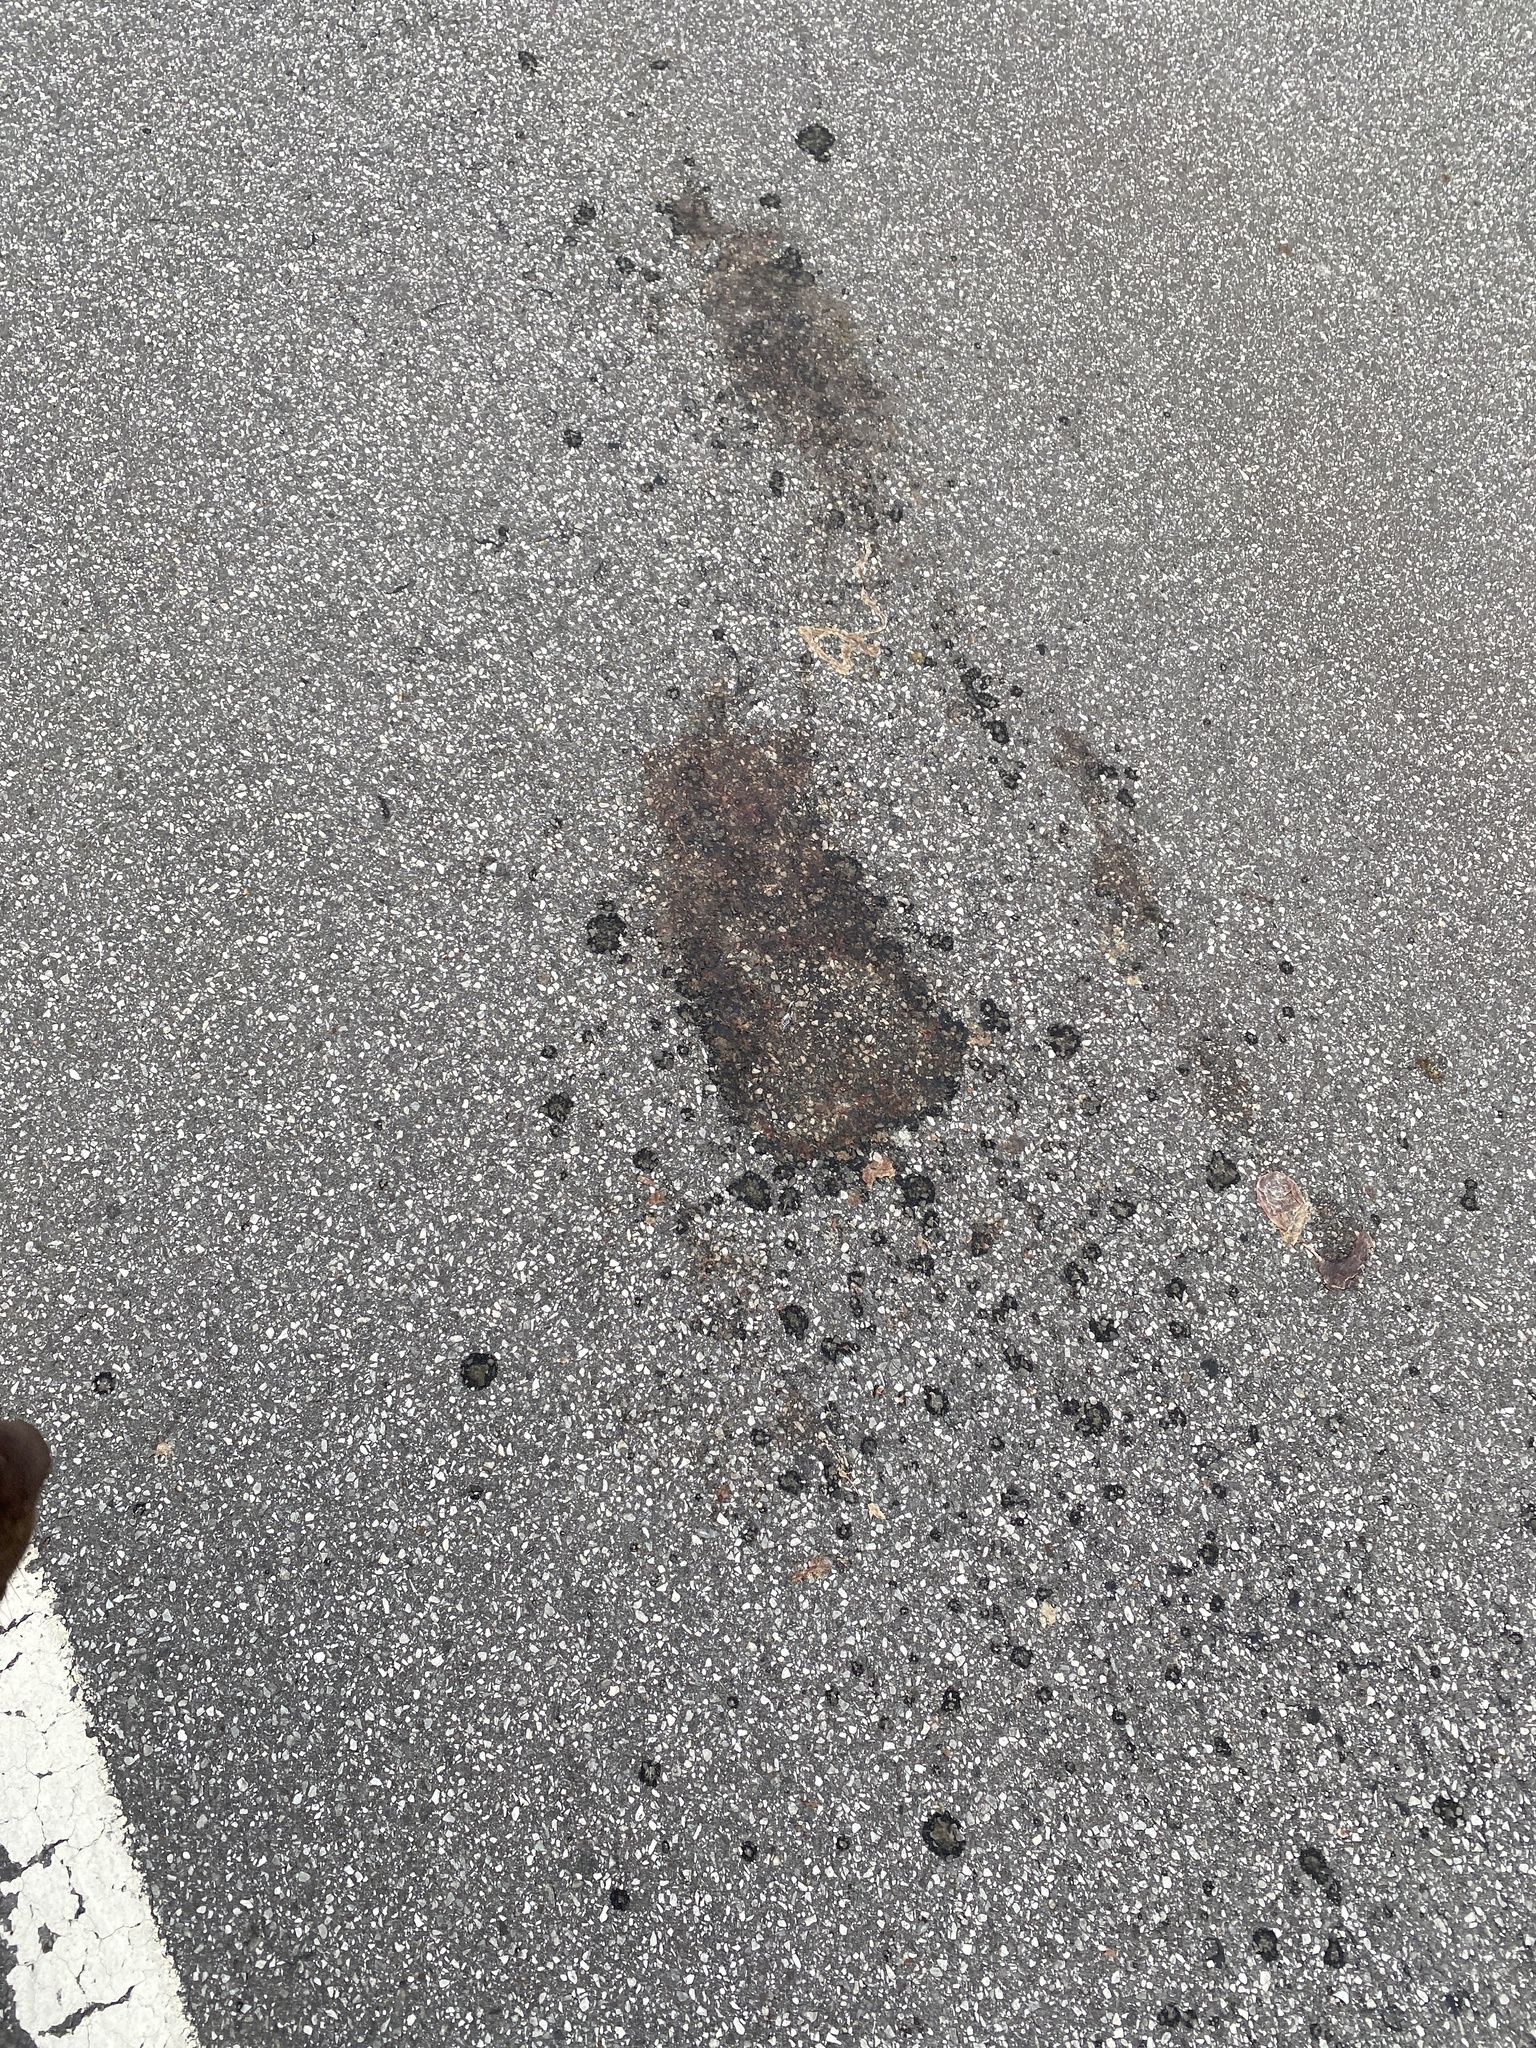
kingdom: Animalia
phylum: Chordata
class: Testudines
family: Emydidae
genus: Chrysemys
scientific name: Chrysemys picta
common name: Painted turtle
